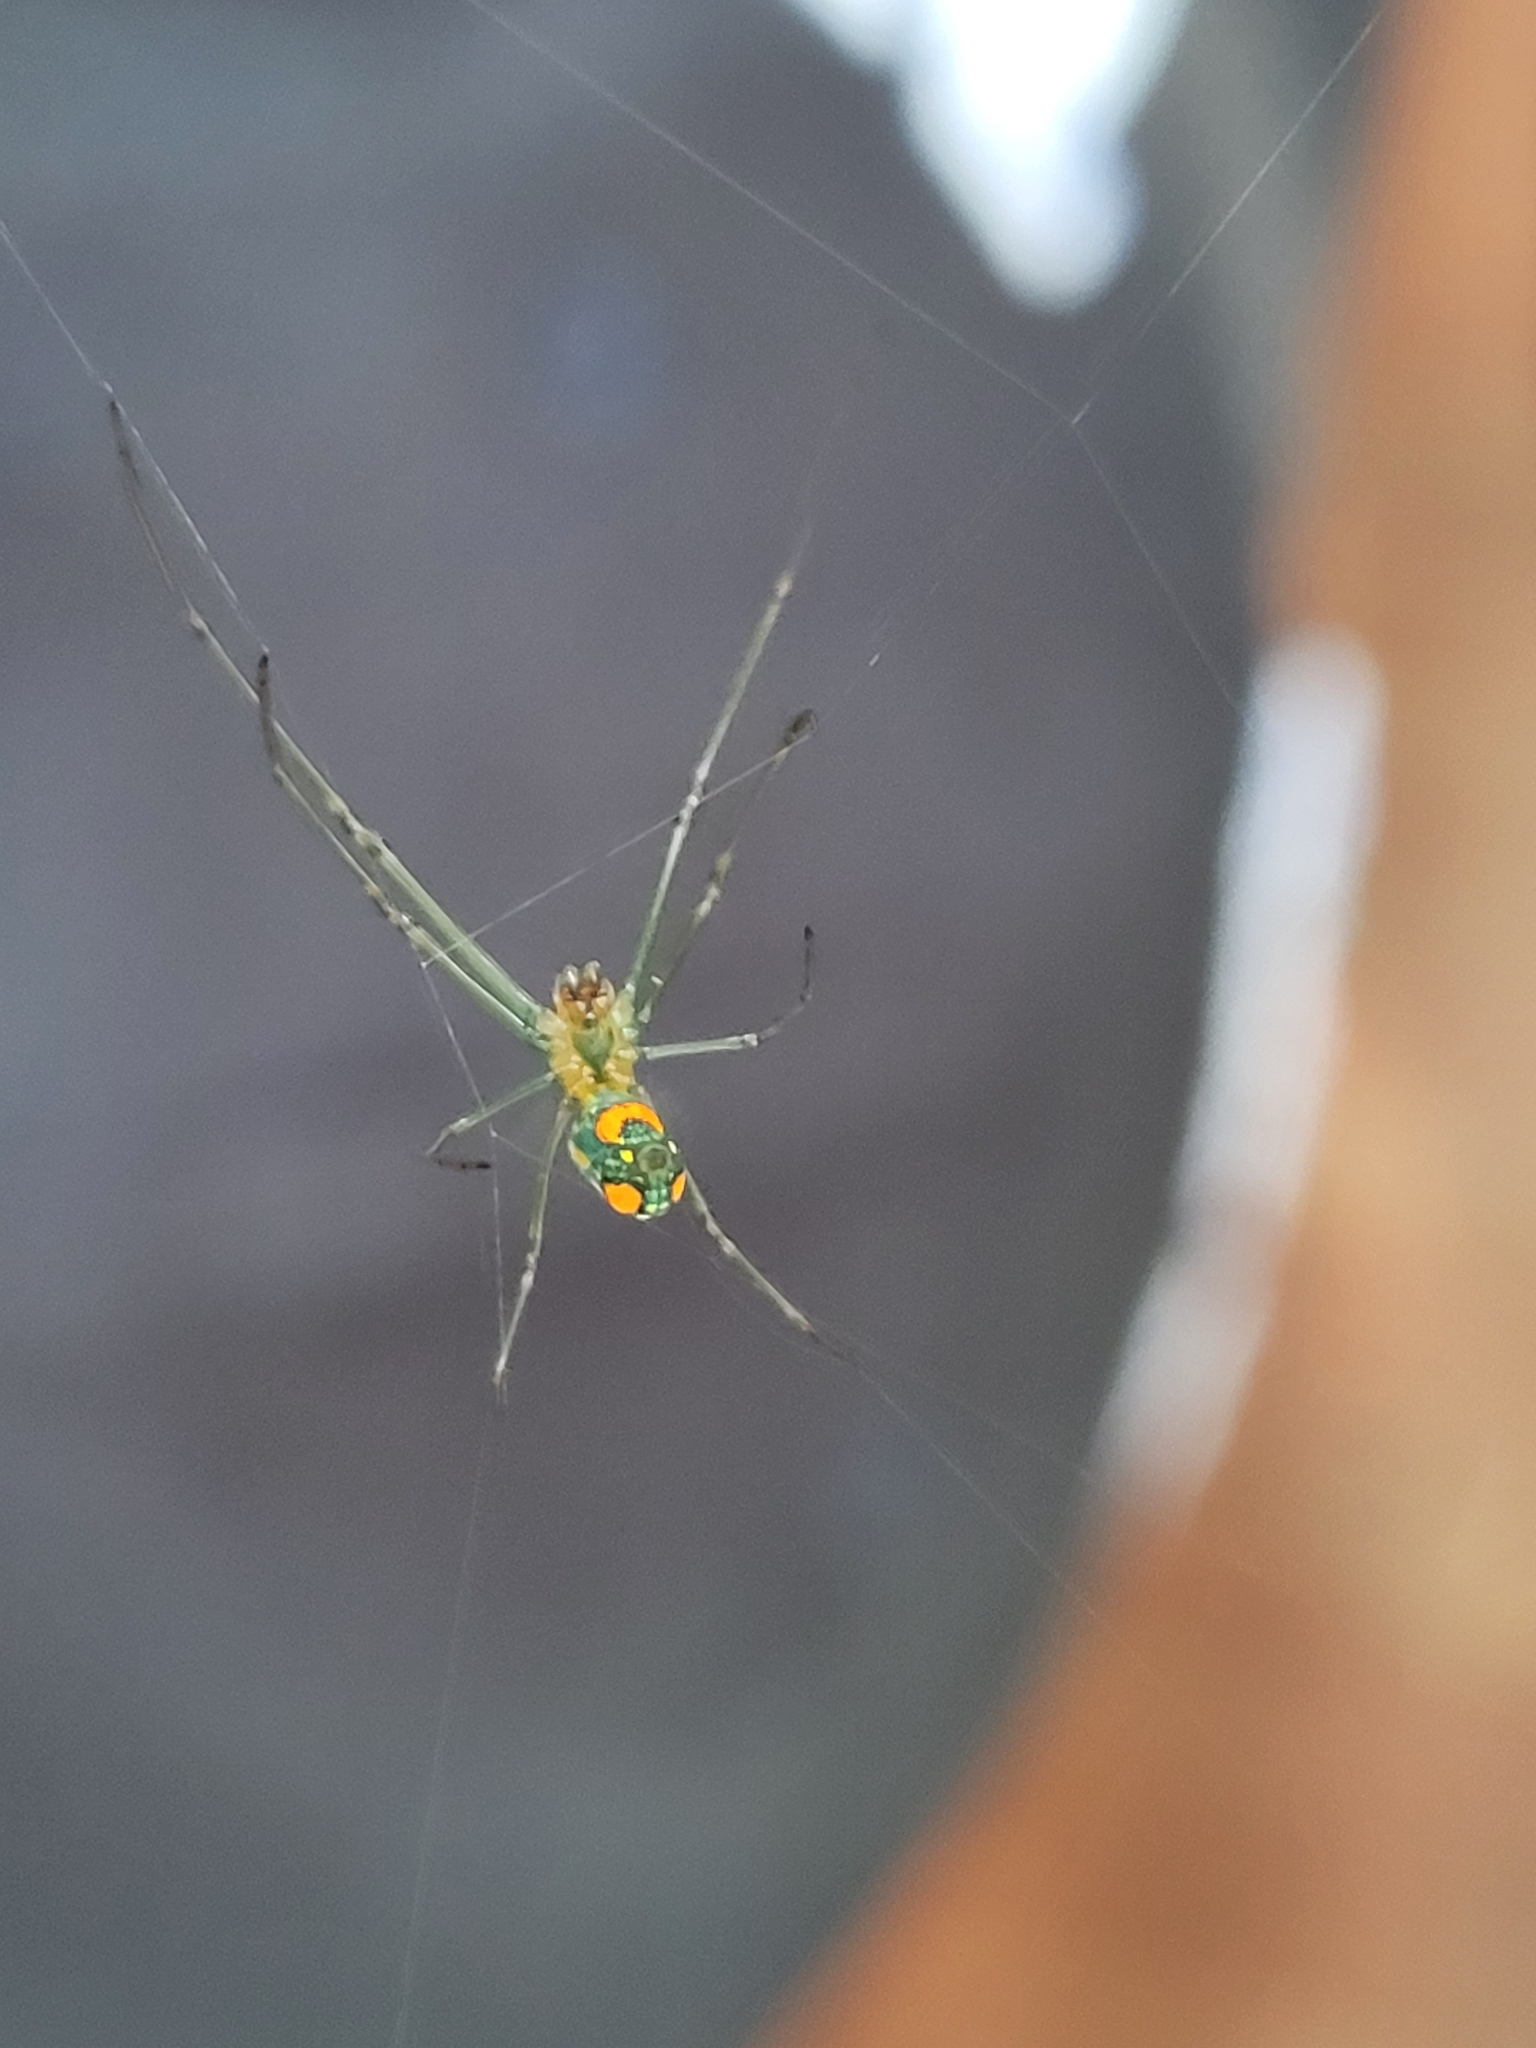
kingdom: Animalia
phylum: Arthropoda
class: Arachnida
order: Araneae
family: Tetragnathidae
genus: Leucauge
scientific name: Leucauge argyrobapta
